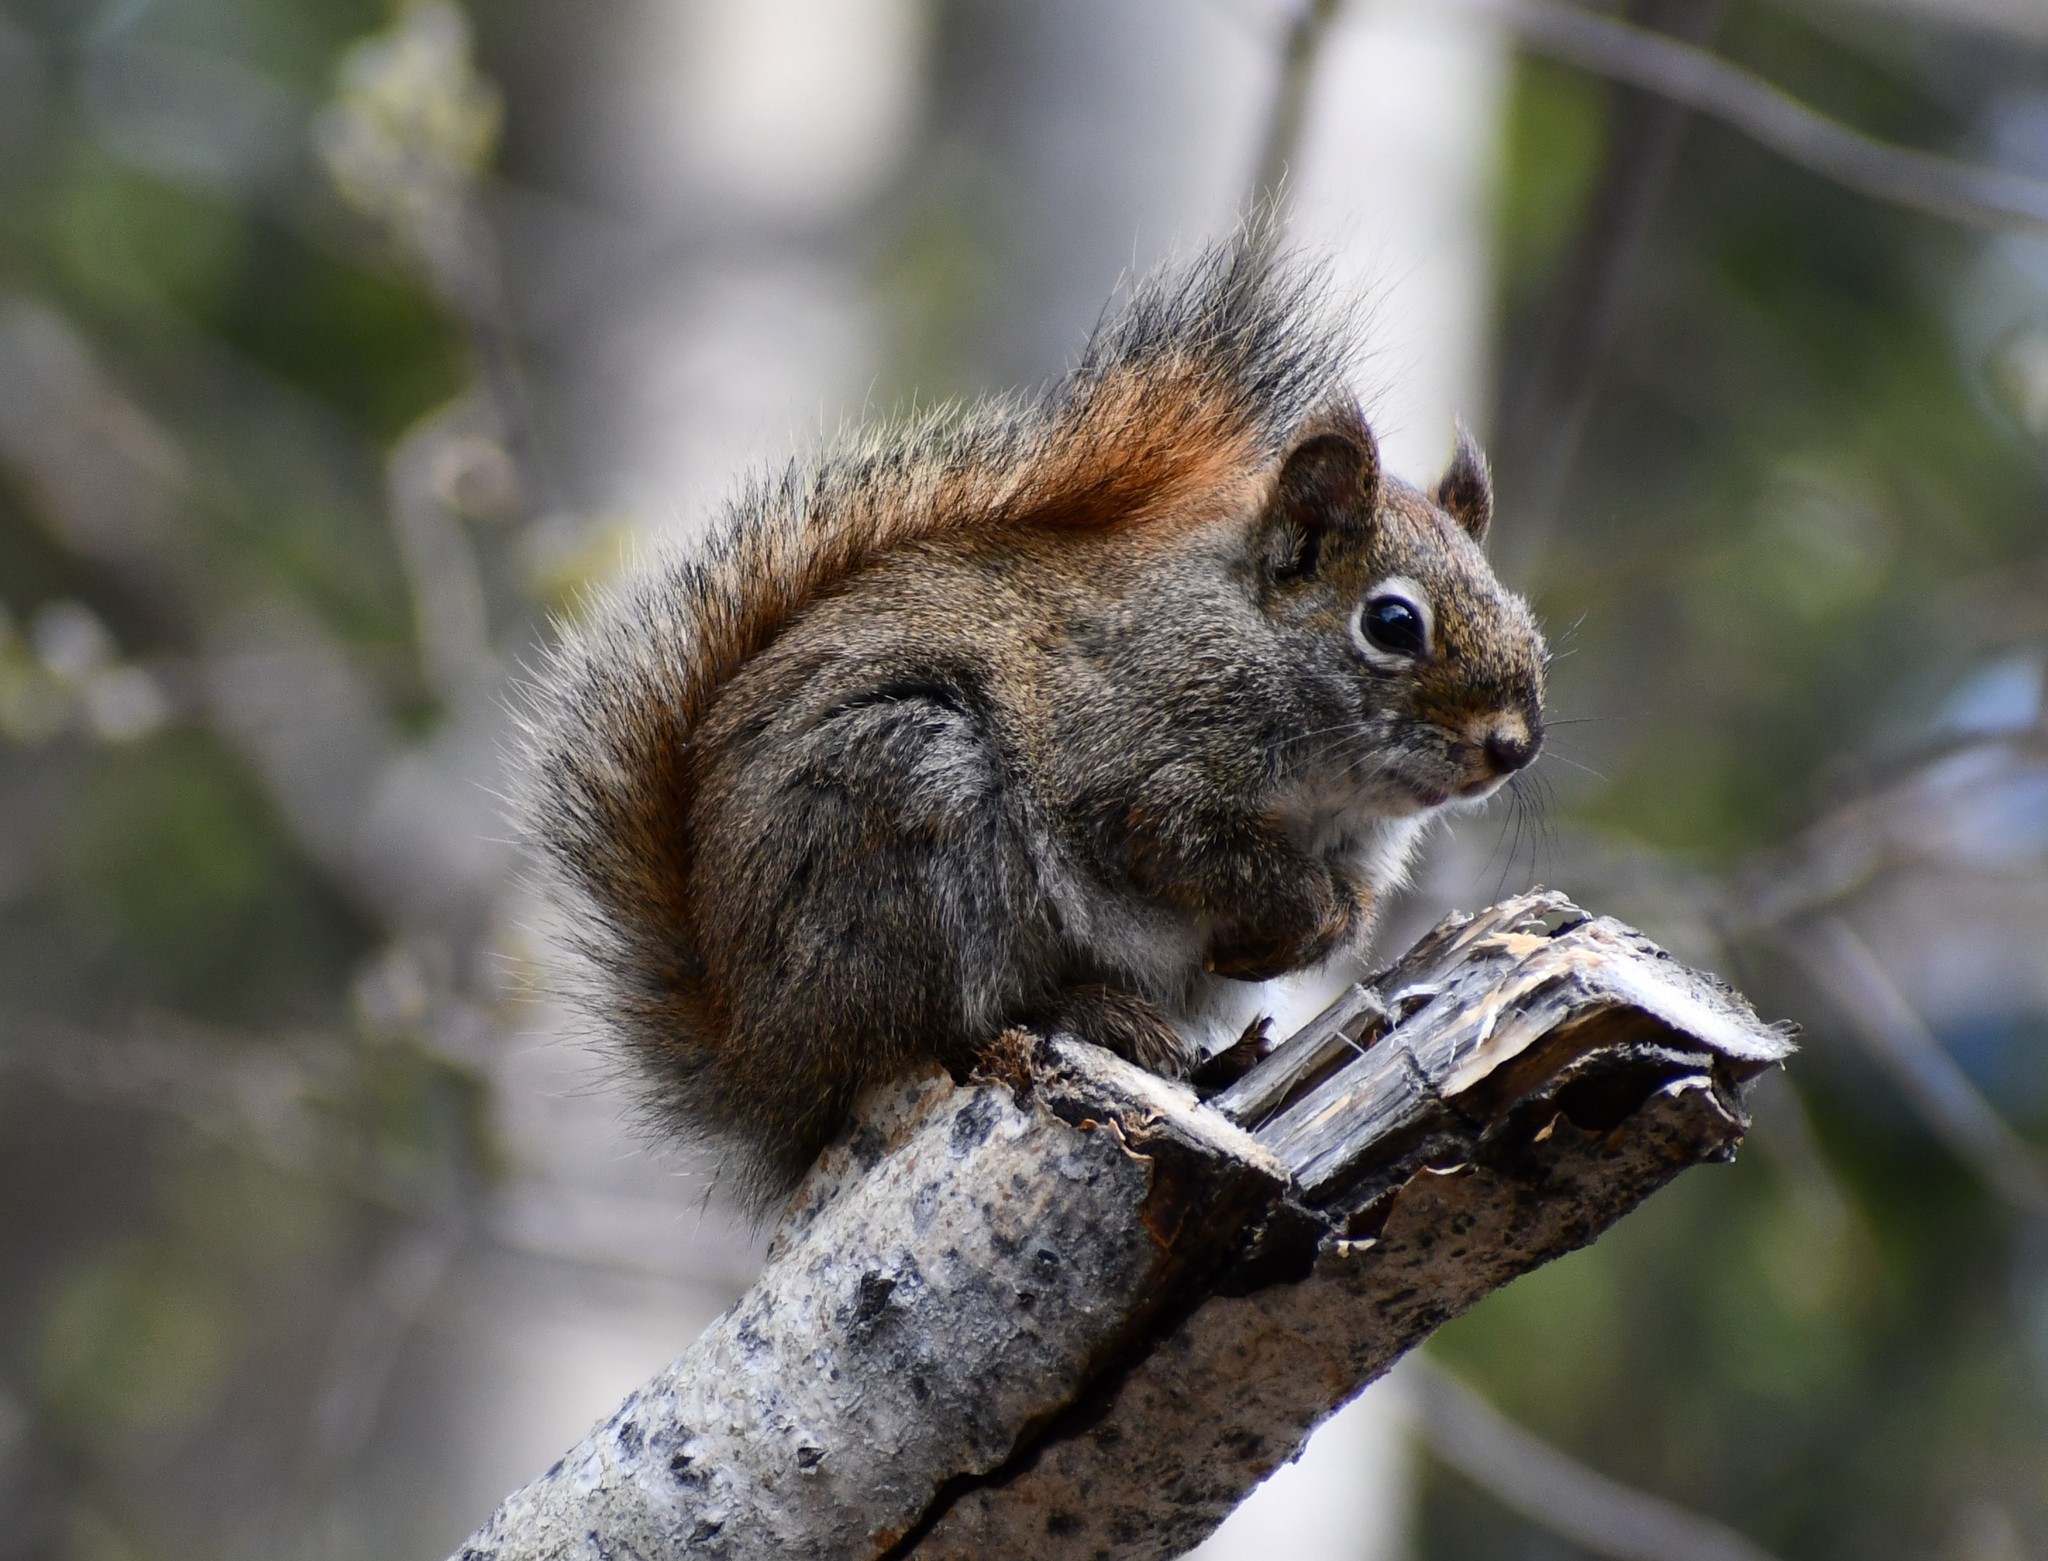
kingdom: Animalia
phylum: Chordata
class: Mammalia
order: Rodentia
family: Sciuridae
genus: Tamiasciurus
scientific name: Tamiasciurus hudsonicus
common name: Red squirrel
